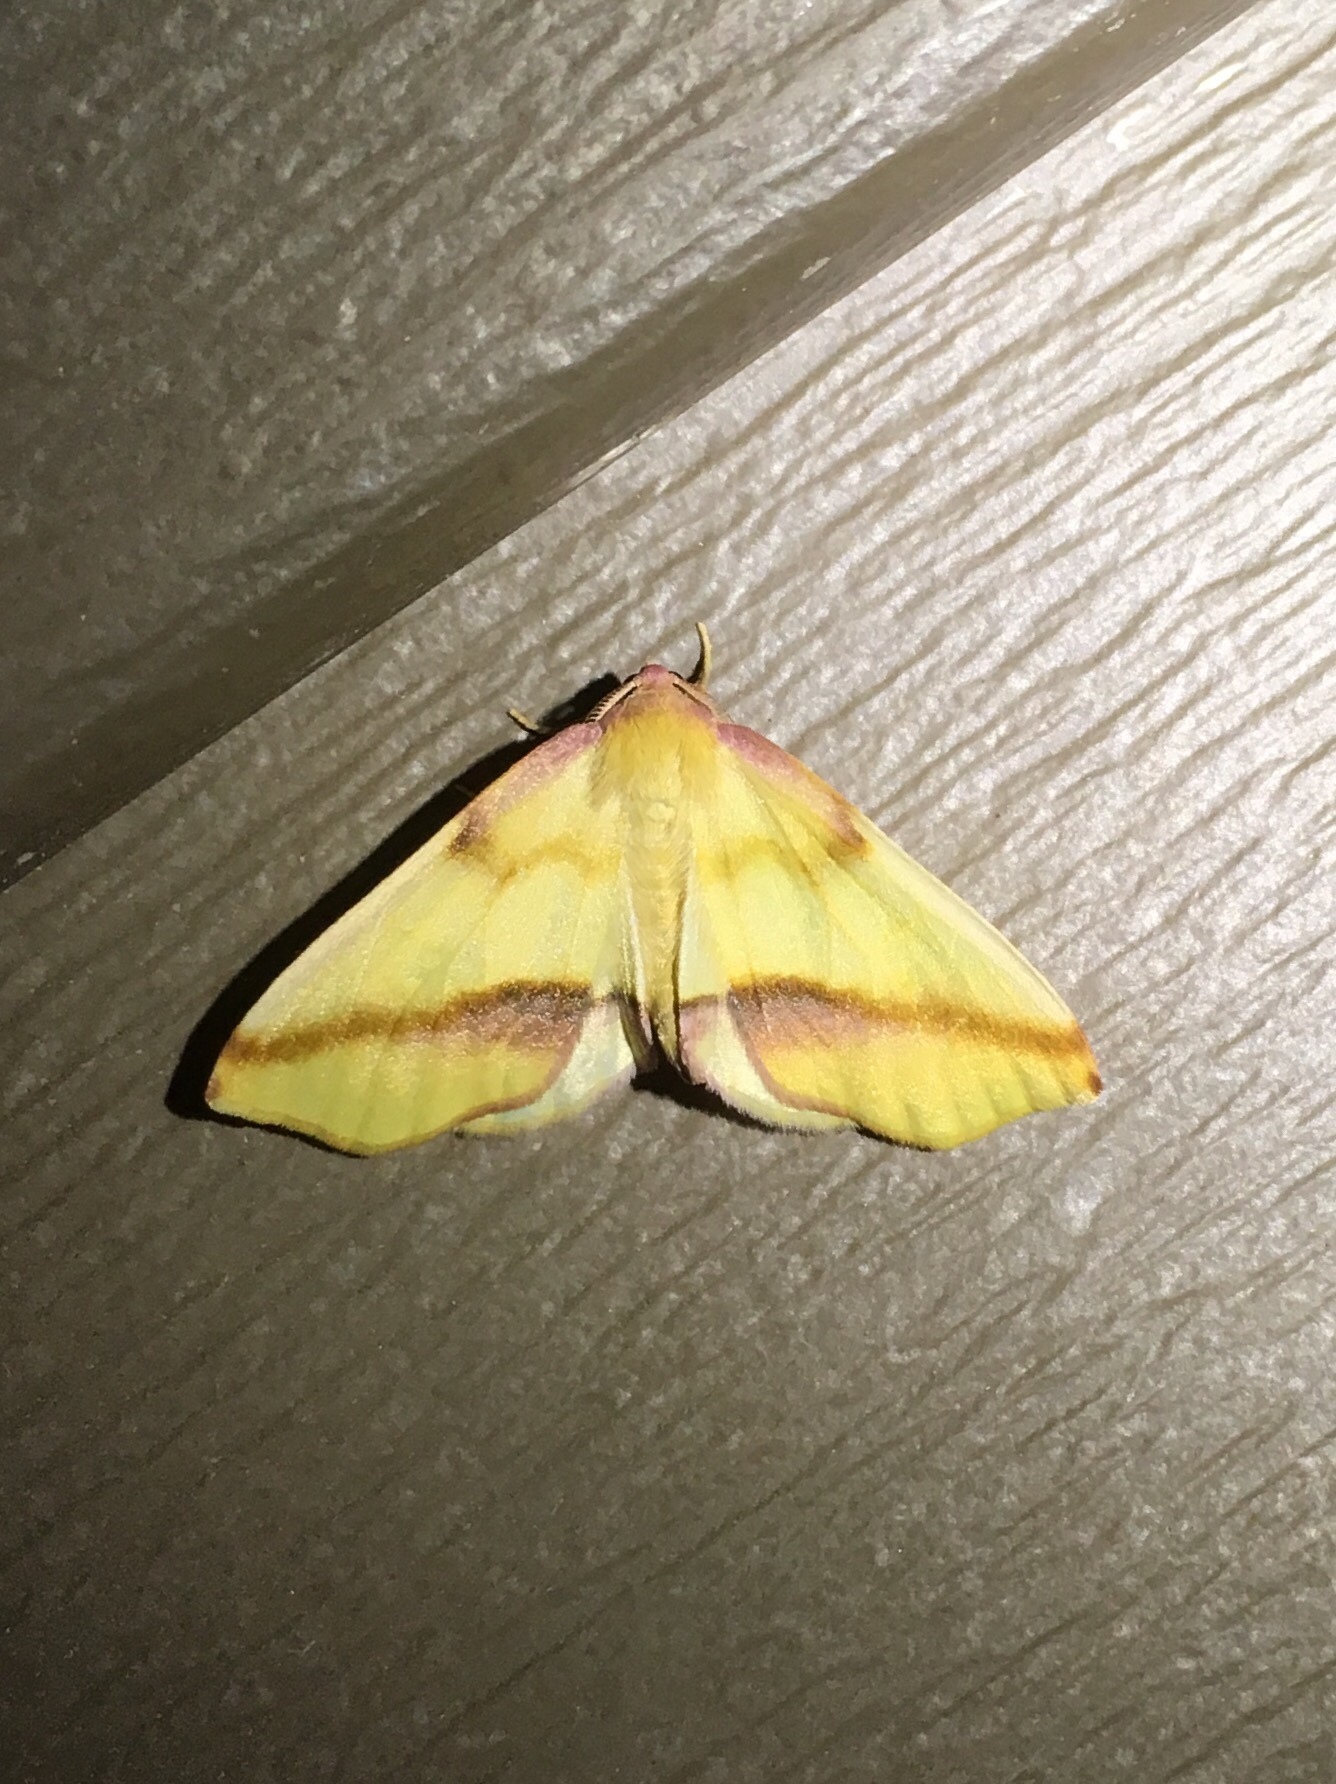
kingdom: Animalia
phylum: Arthropoda
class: Insecta
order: Lepidoptera
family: Geometridae
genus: Plagodis
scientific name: Plagodis serinaria
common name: Lemon plagodis
